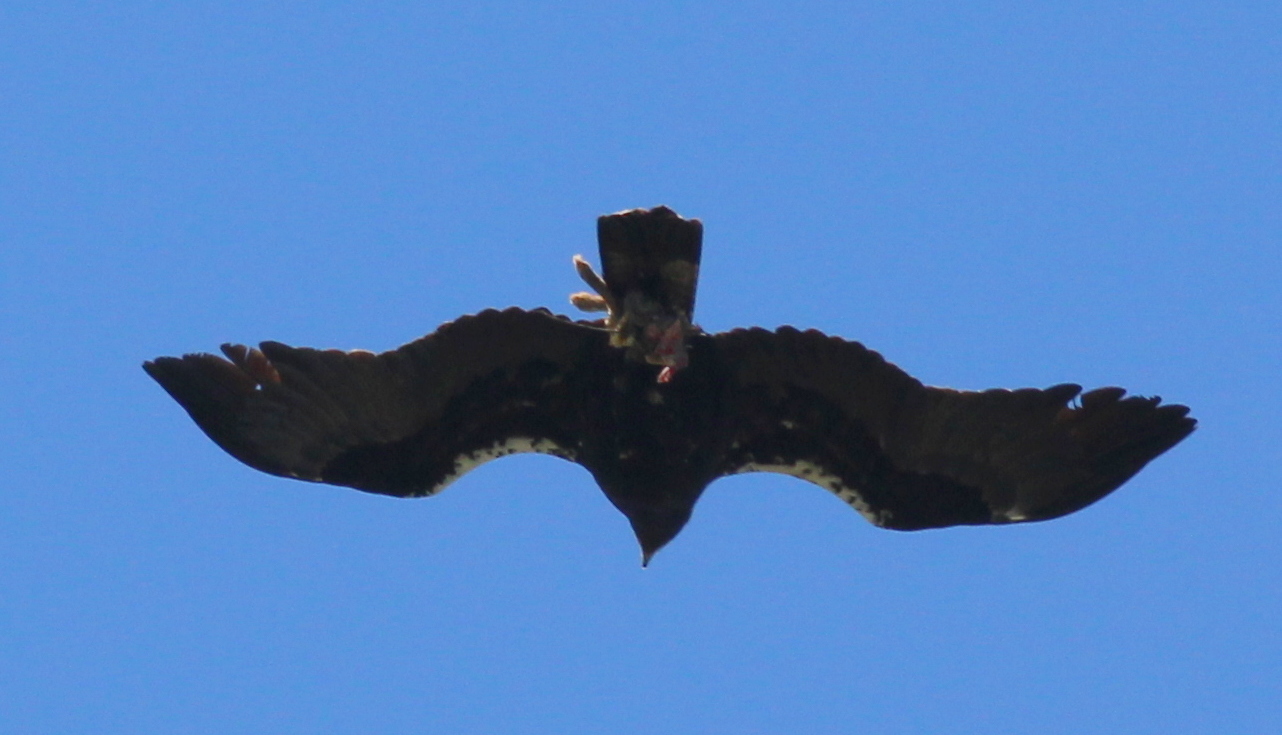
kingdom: Animalia
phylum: Chordata
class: Aves
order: Accipitriformes
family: Accipitridae
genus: Aquila
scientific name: Aquila adalberti
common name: Spanish imperial eagle
